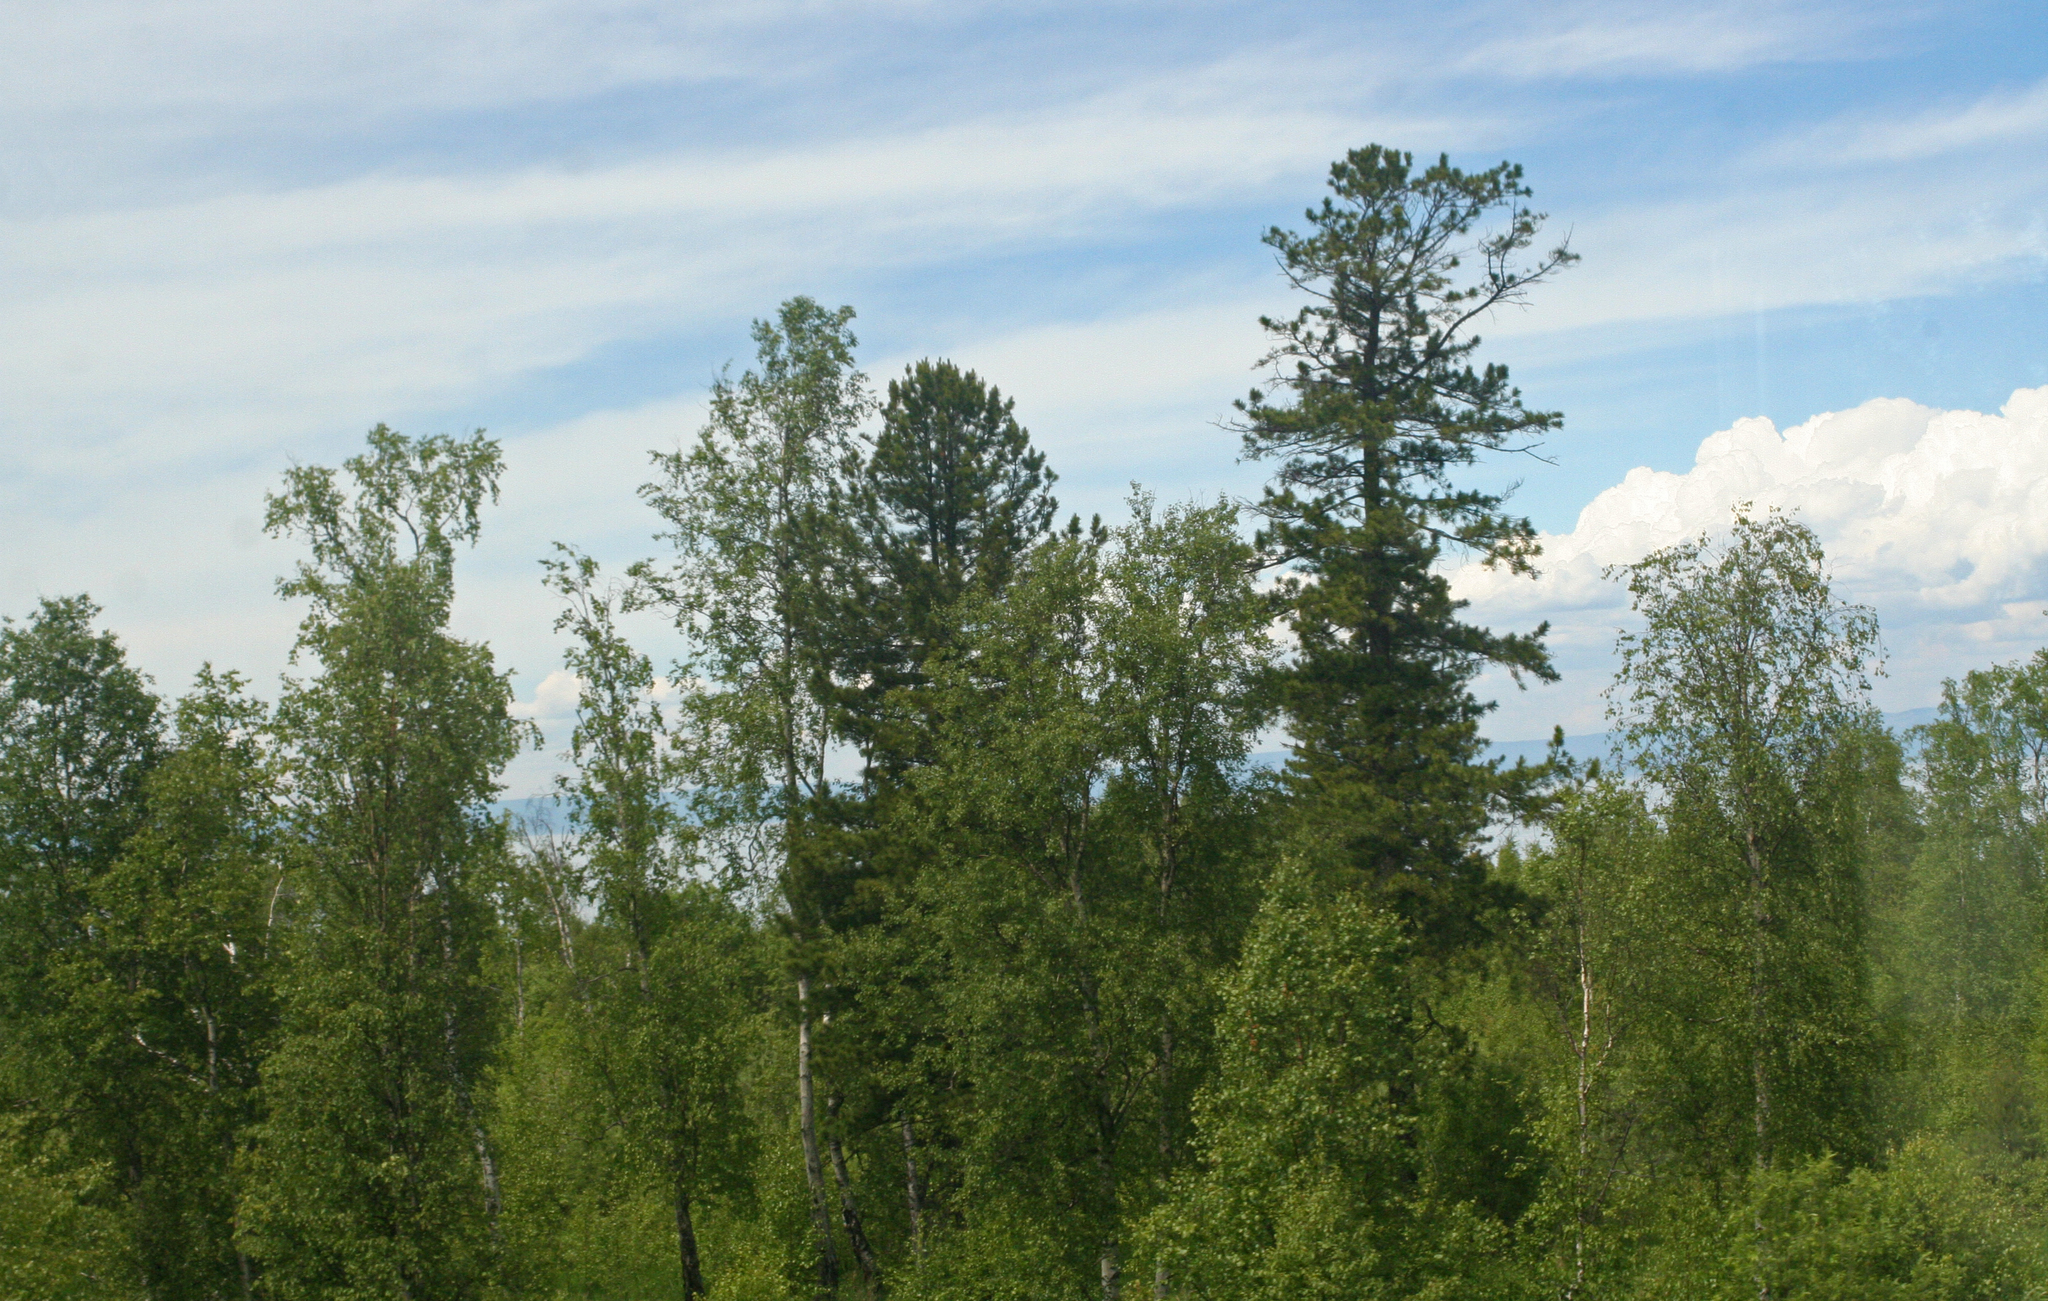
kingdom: Plantae
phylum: Tracheophyta
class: Pinopsida
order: Pinales
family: Pinaceae
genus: Pinus
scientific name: Pinus sibirica
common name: Siberian pine
